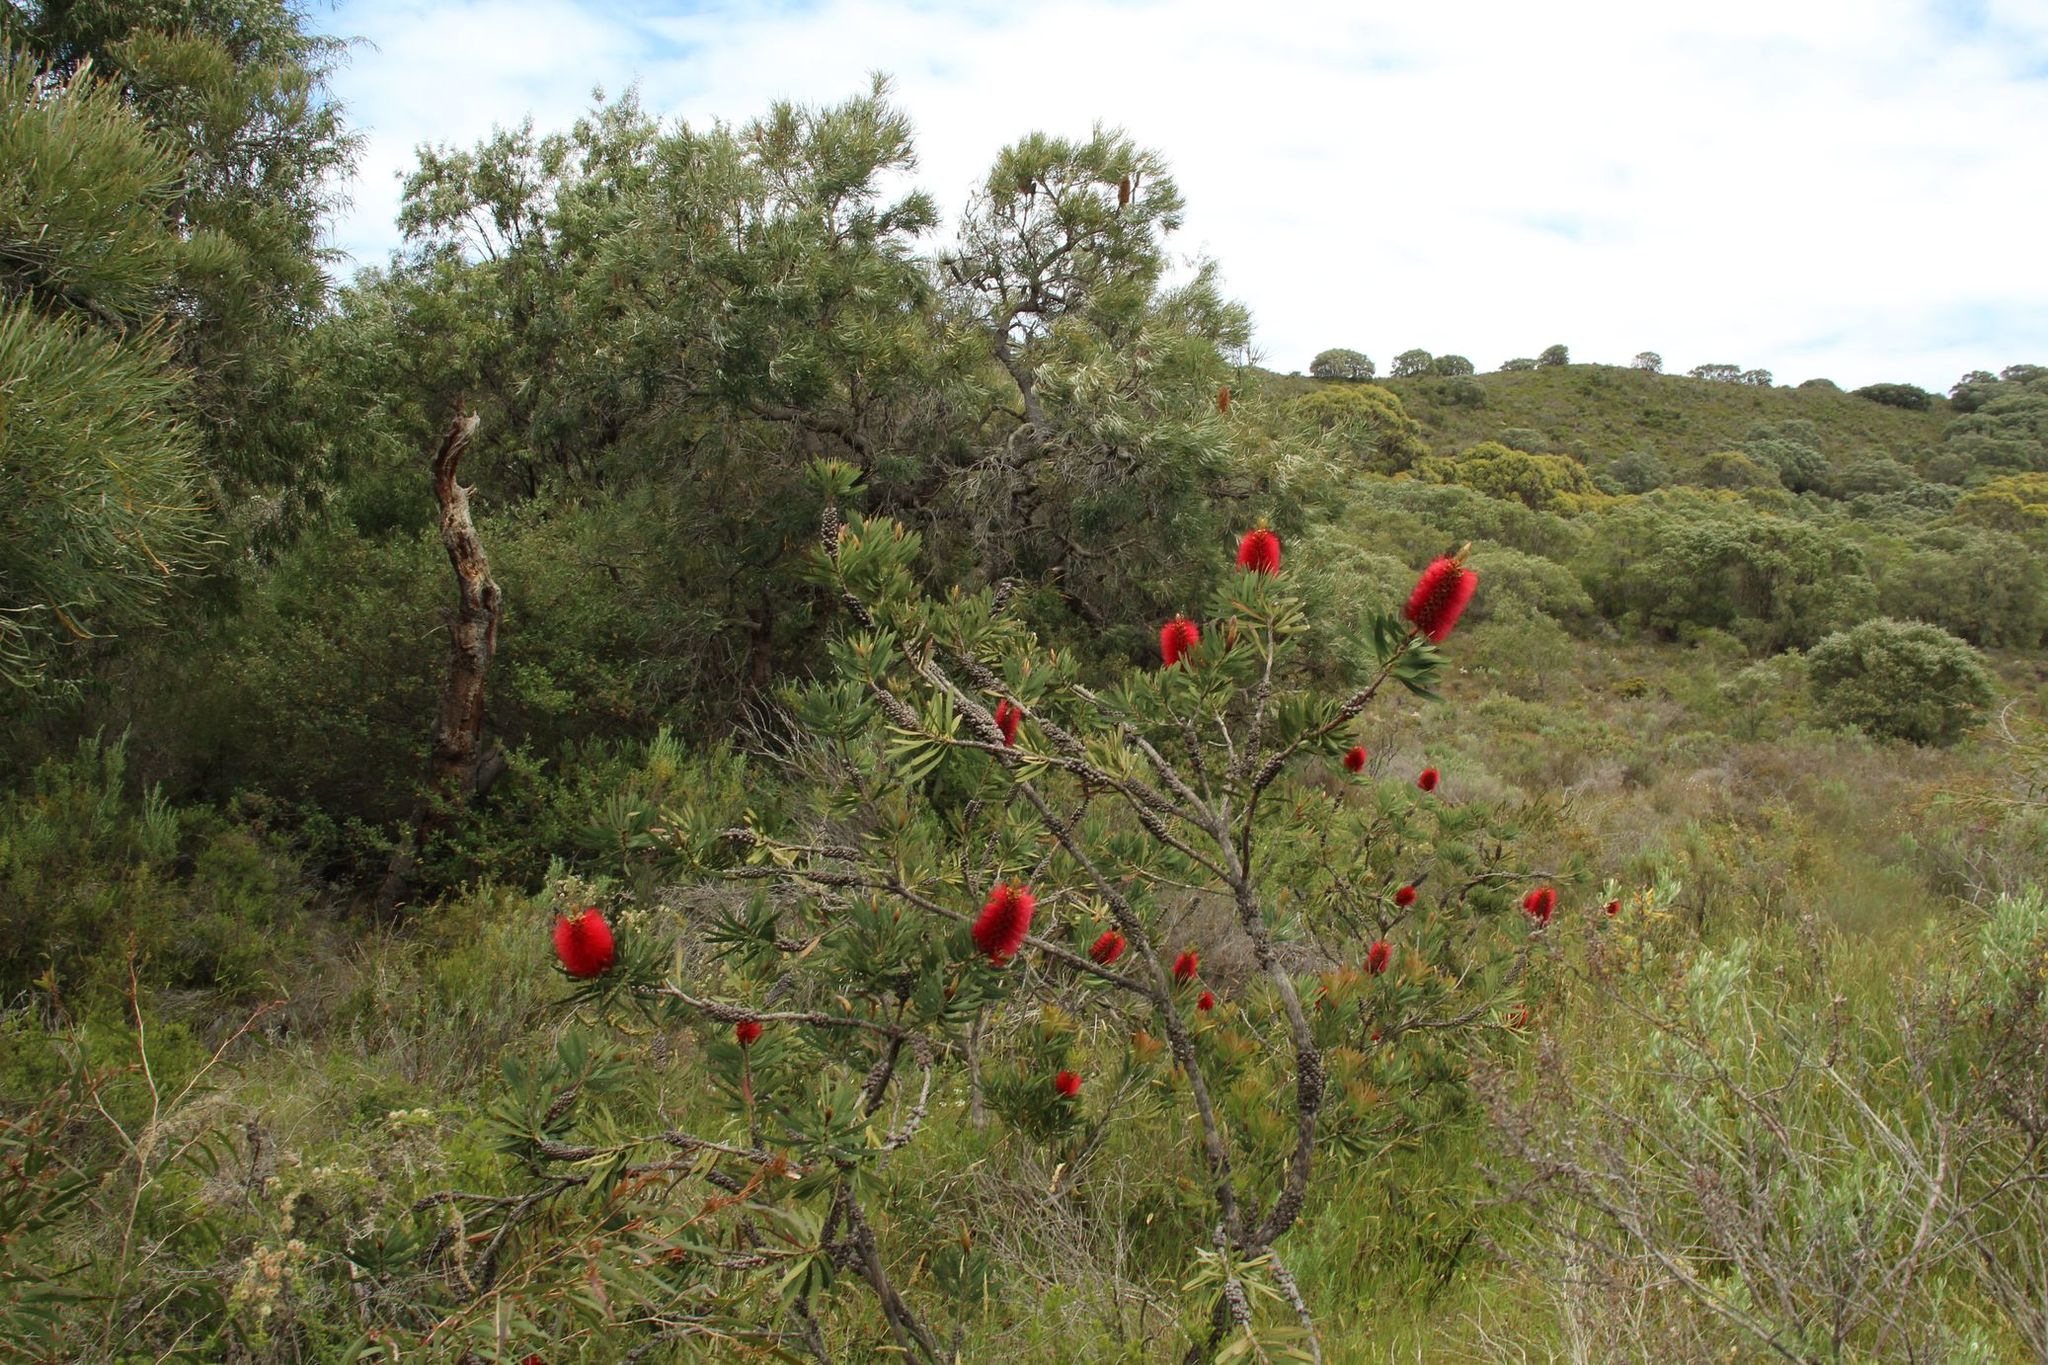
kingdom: Plantae
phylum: Tracheophyta
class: Magnoliopsida
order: Myrtales
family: Myrtaceae
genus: Melaleuca
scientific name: Melaleuca glauca
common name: Albany-bottlebrush
